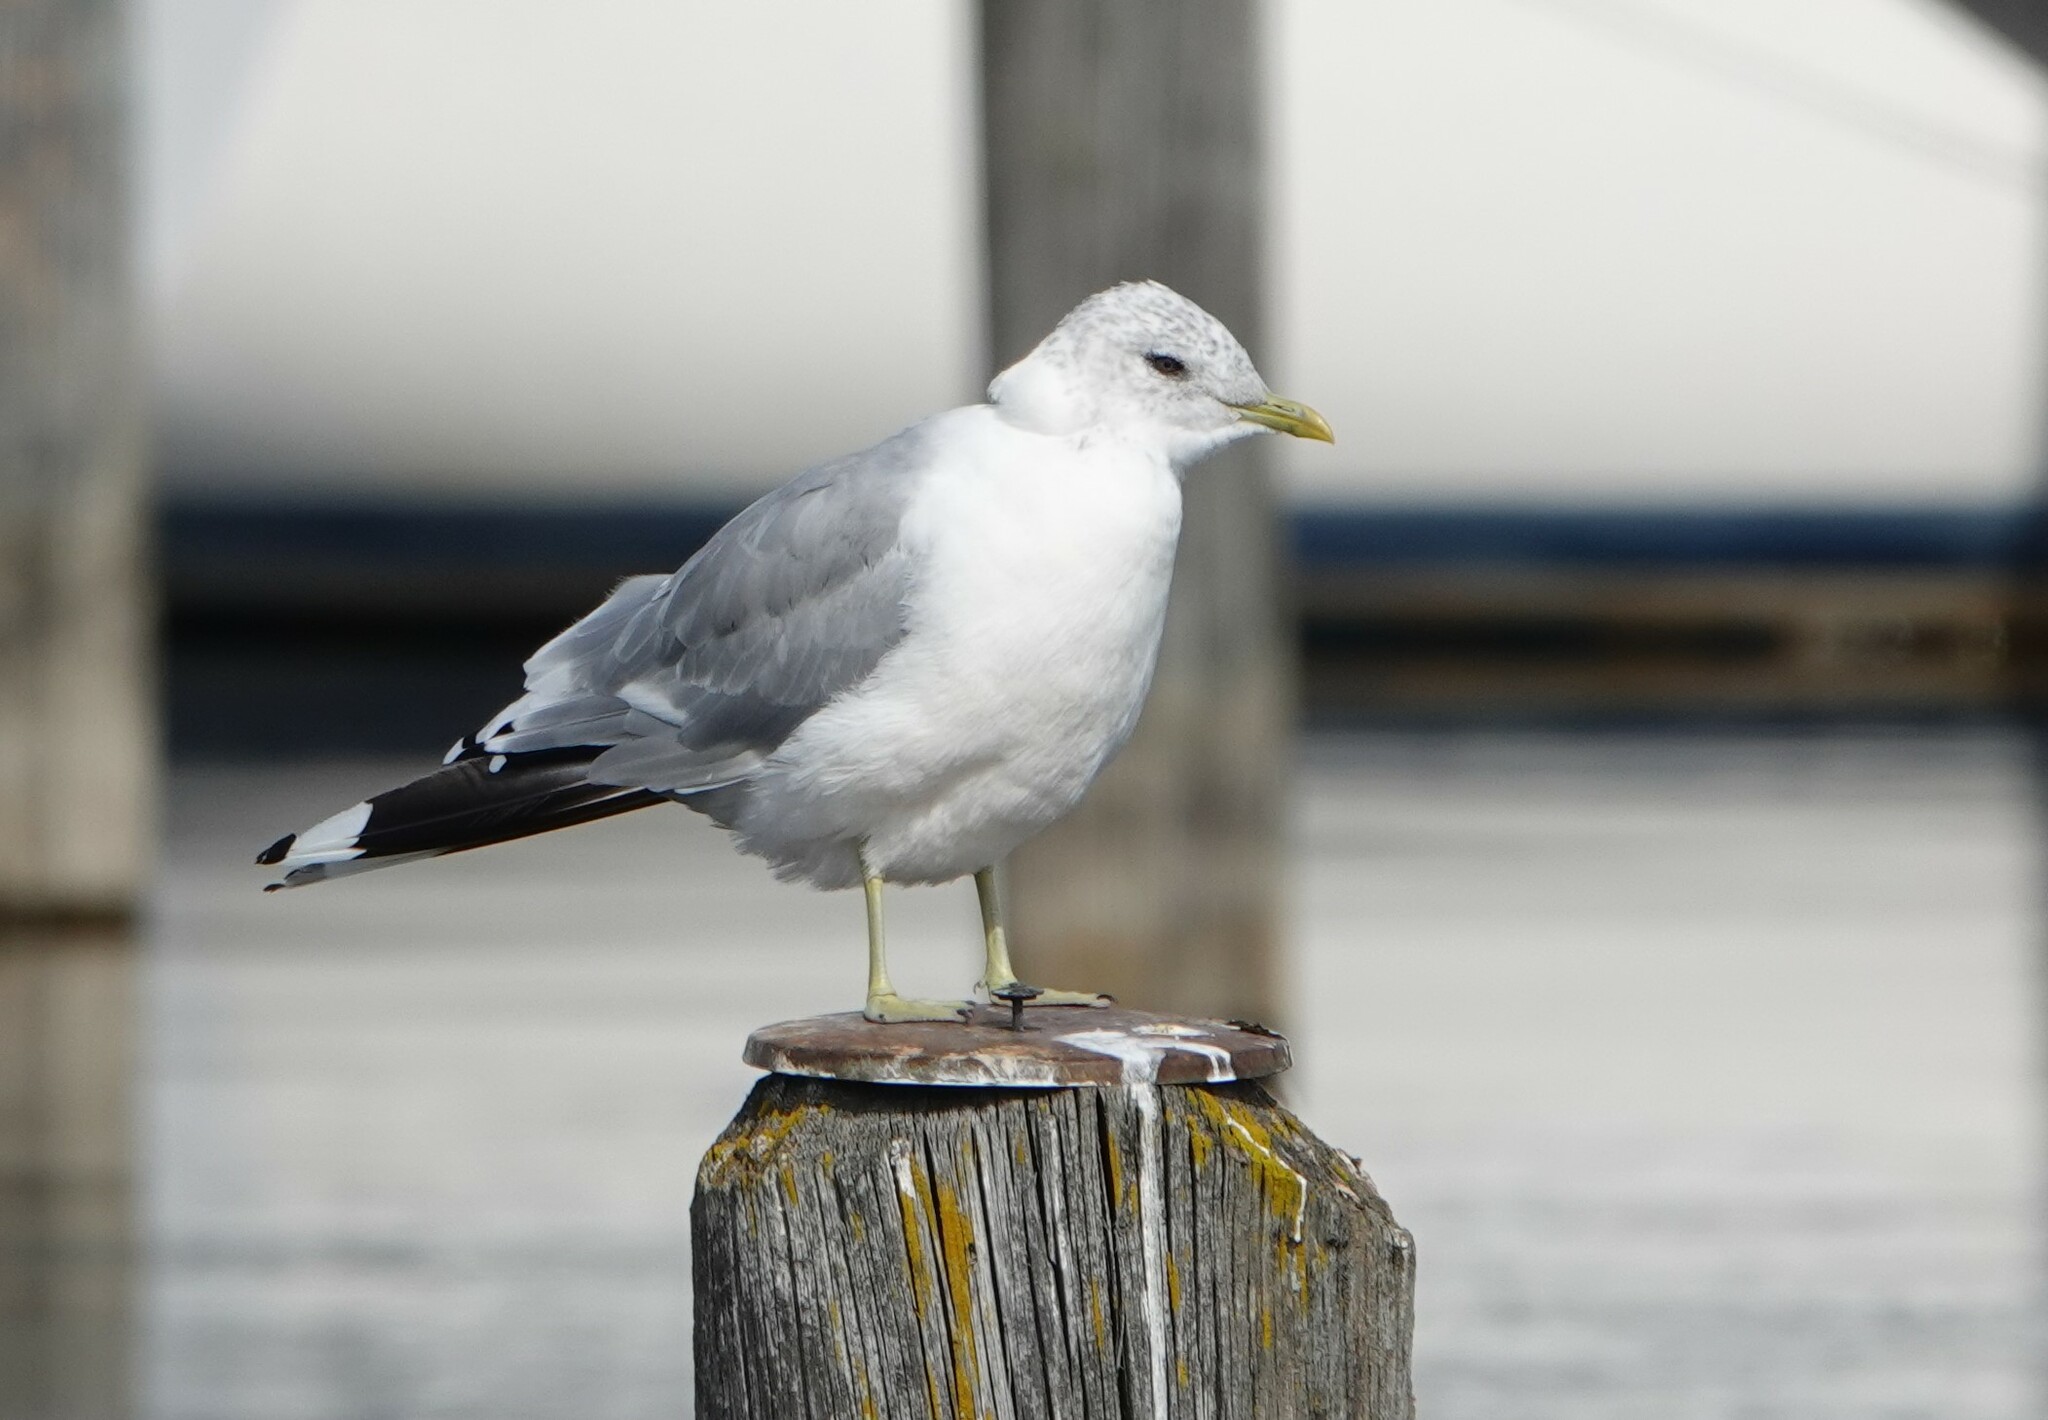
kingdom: Animalia
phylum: Chordata
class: Aves
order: Charadriiformes
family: Laridae
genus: Larus
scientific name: Larus canus
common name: Mew gull
